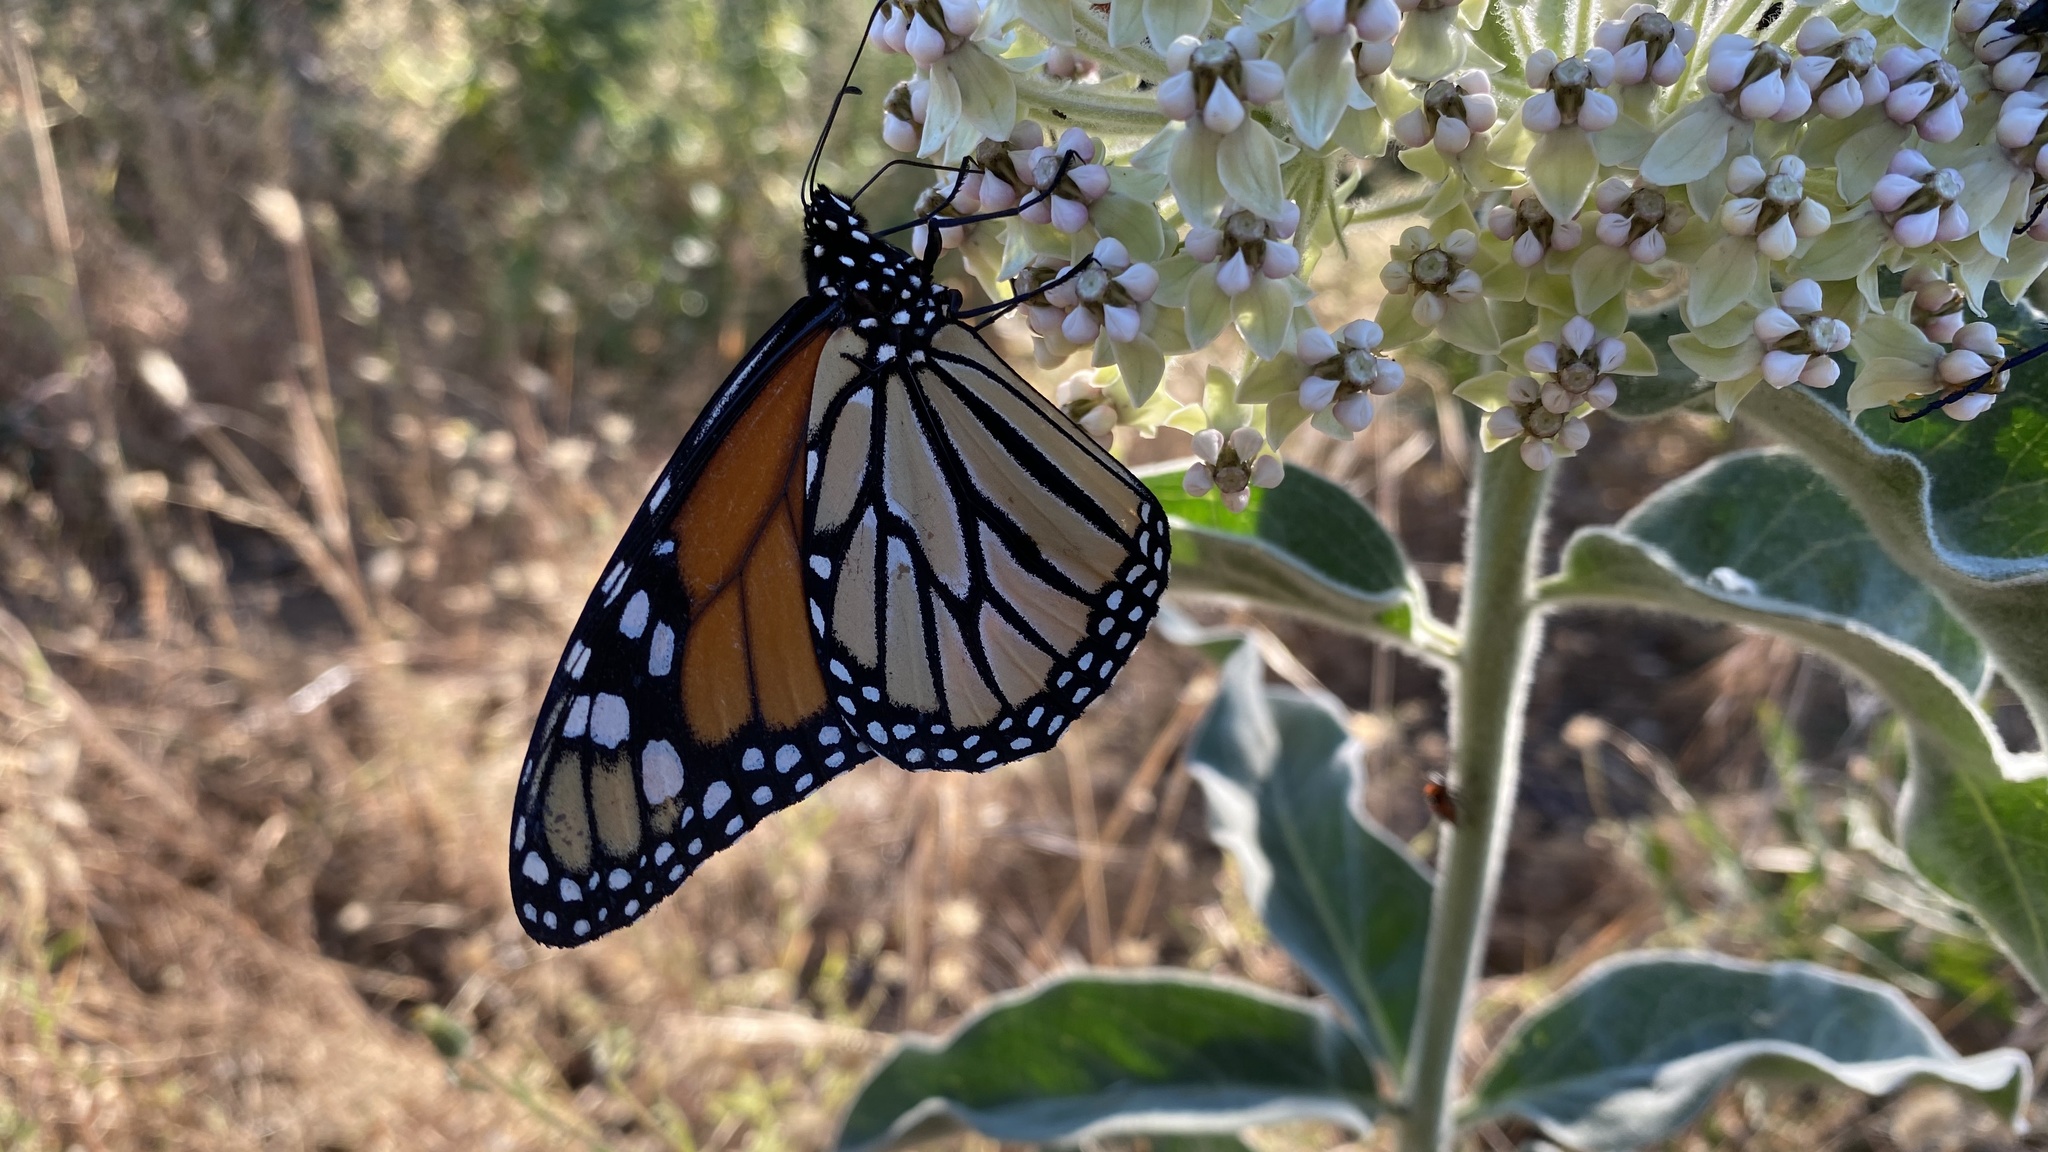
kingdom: Animalia
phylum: Arthropoda
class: Insecta
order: Lepidoptera
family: Nymphalidae
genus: Danaus
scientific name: Danaus plexippus
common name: Monarch
